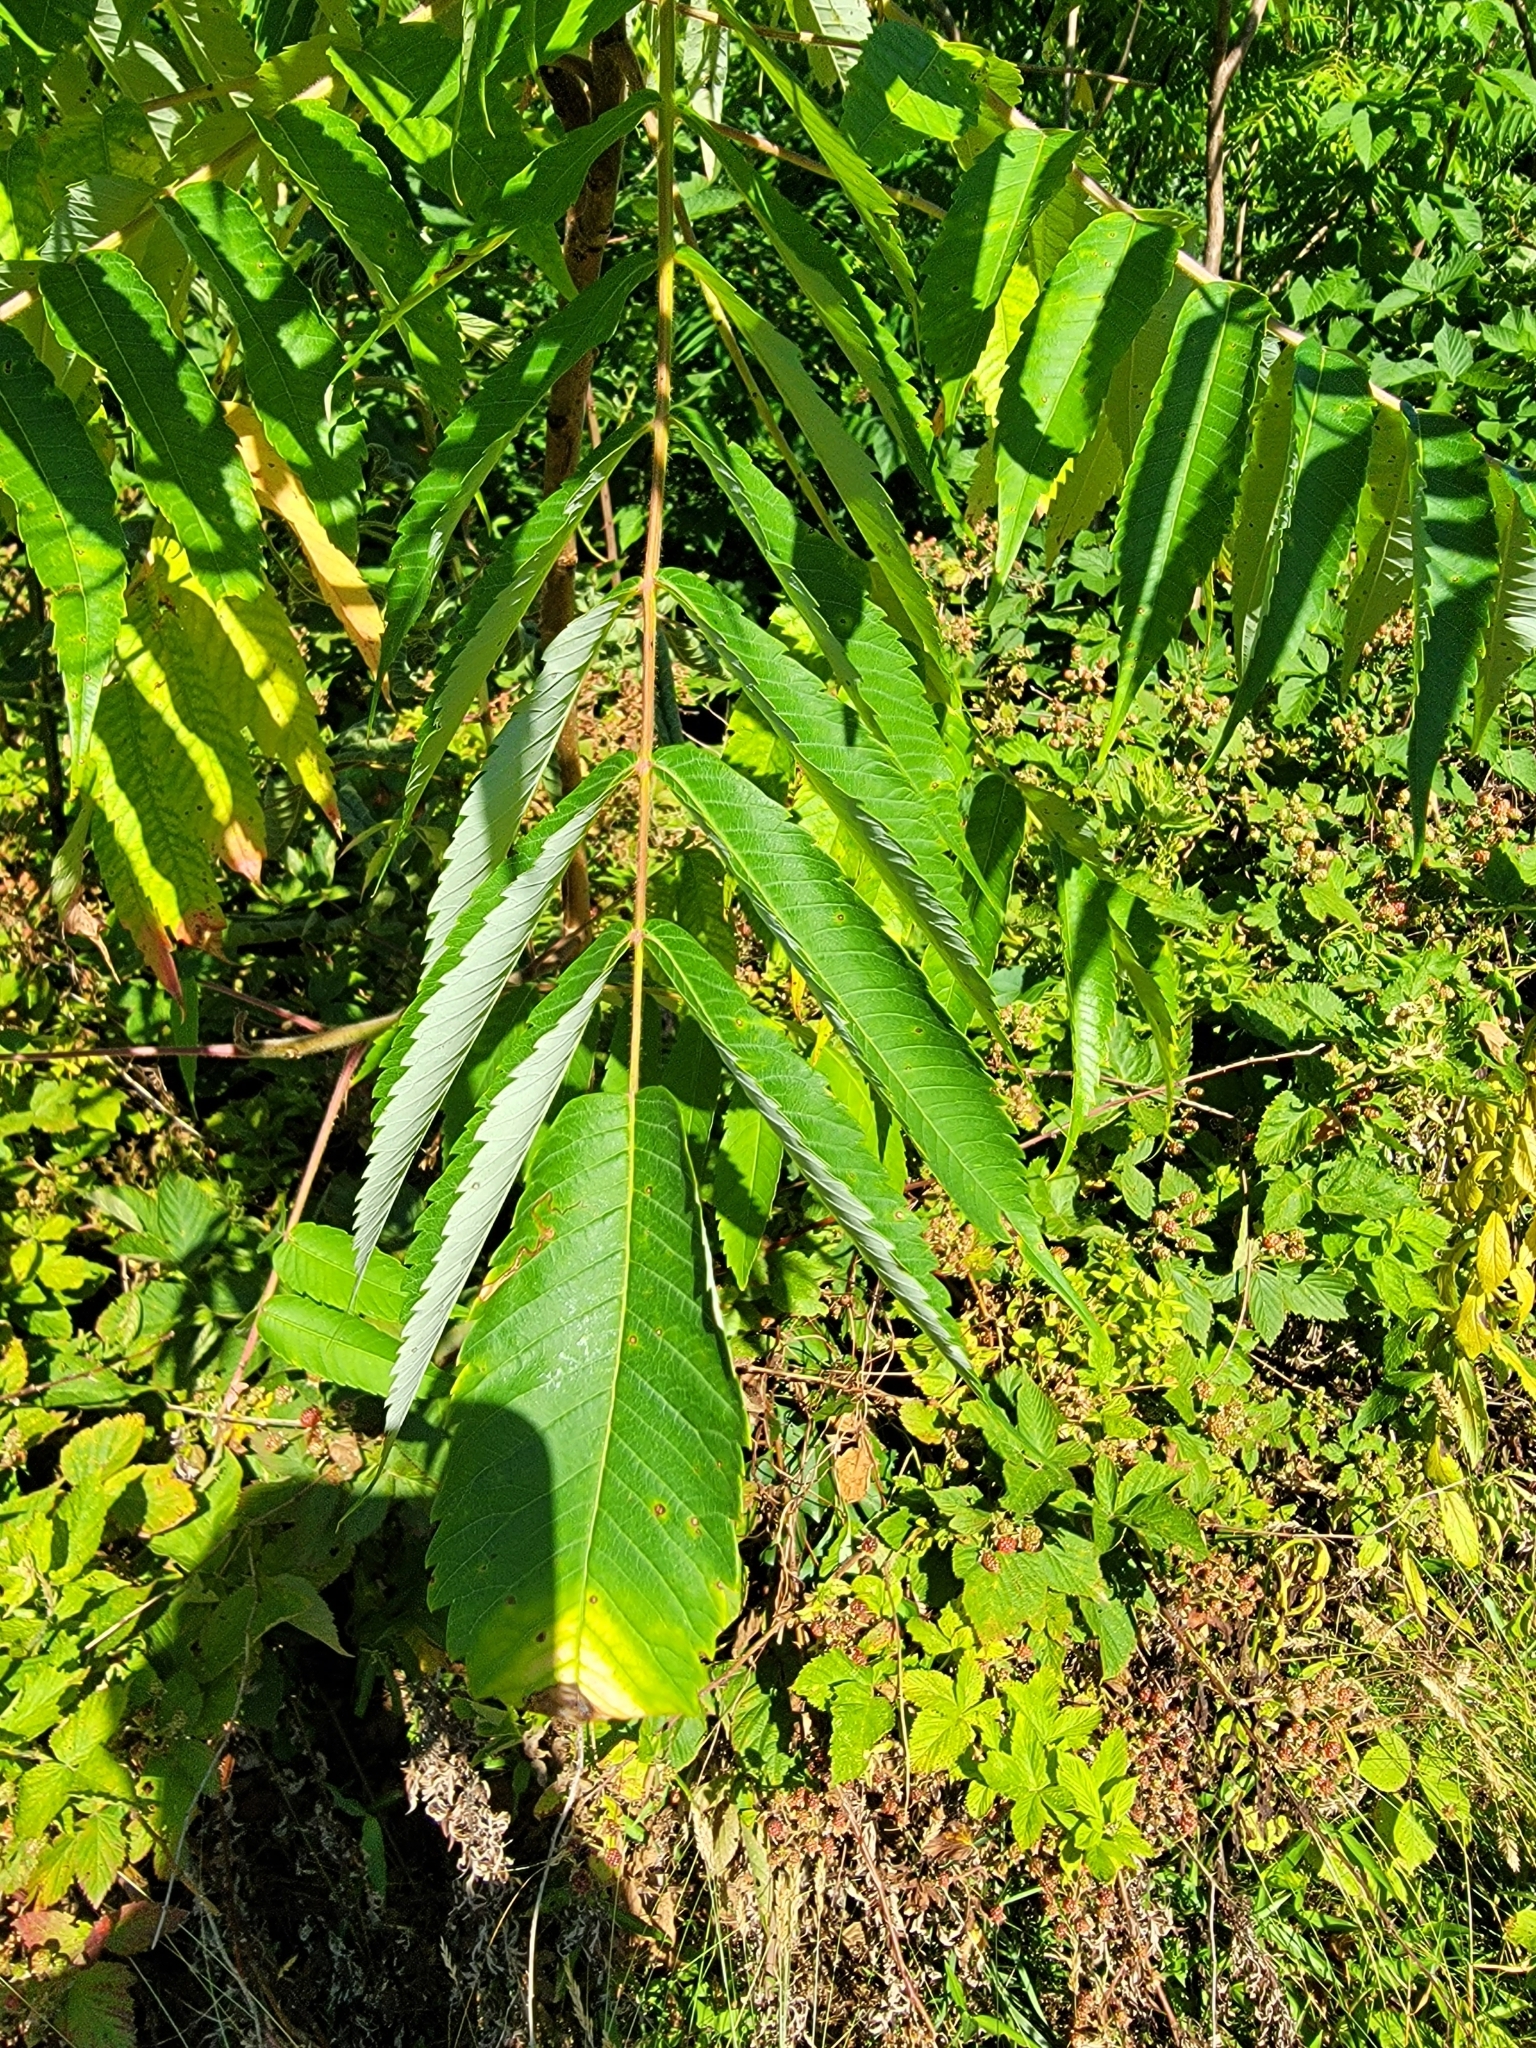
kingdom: Plantae
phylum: Tracheophyta
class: Magnoliopsida
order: Sapindales
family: Anacardiaceae
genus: Rhus
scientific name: Rhus typhina
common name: Staghorn sumac
